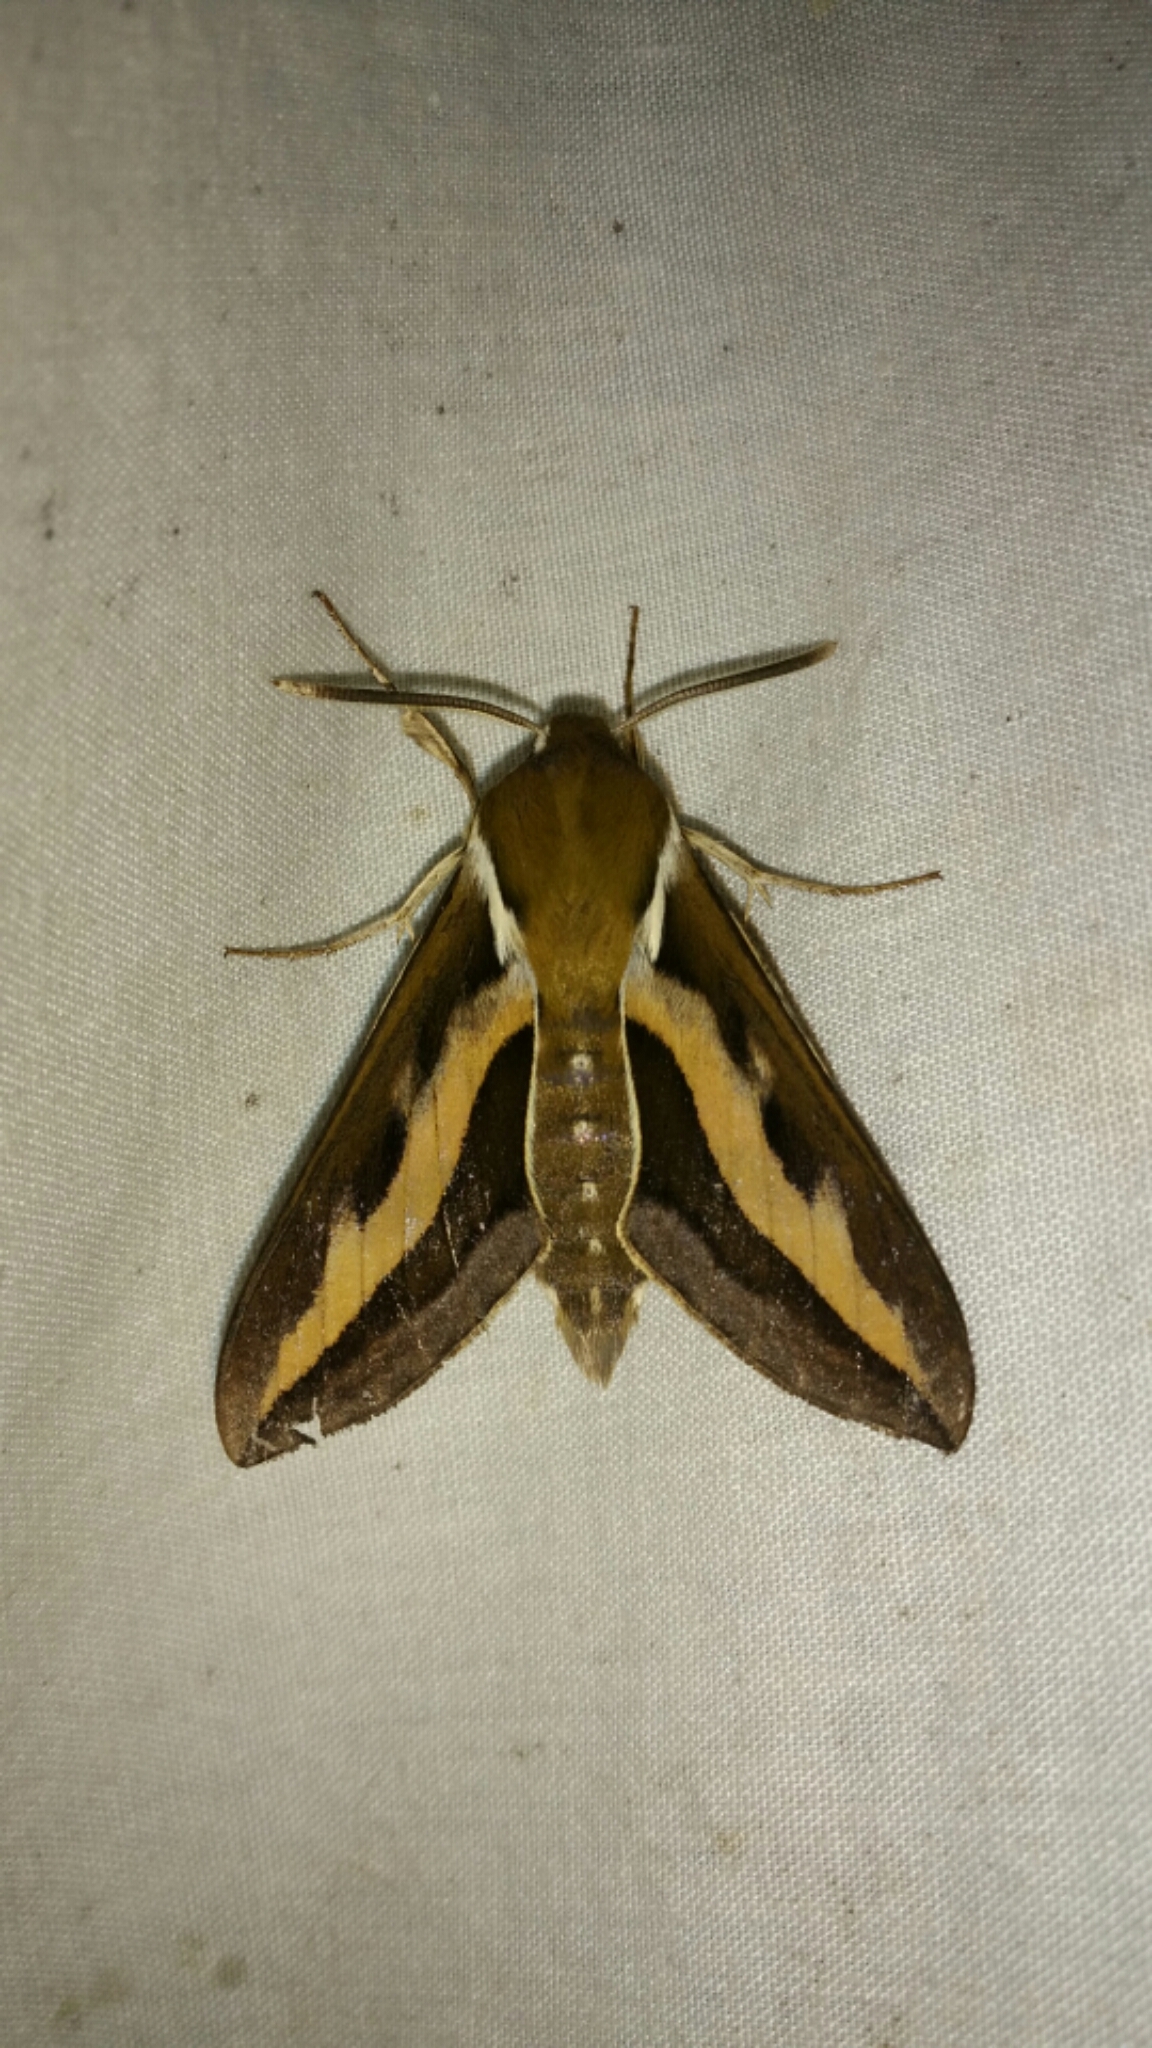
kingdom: Animalia
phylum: Arthropoda
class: Insecta
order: Lepidoptera
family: Sphingidae
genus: Hyles
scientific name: Hyles gallii
